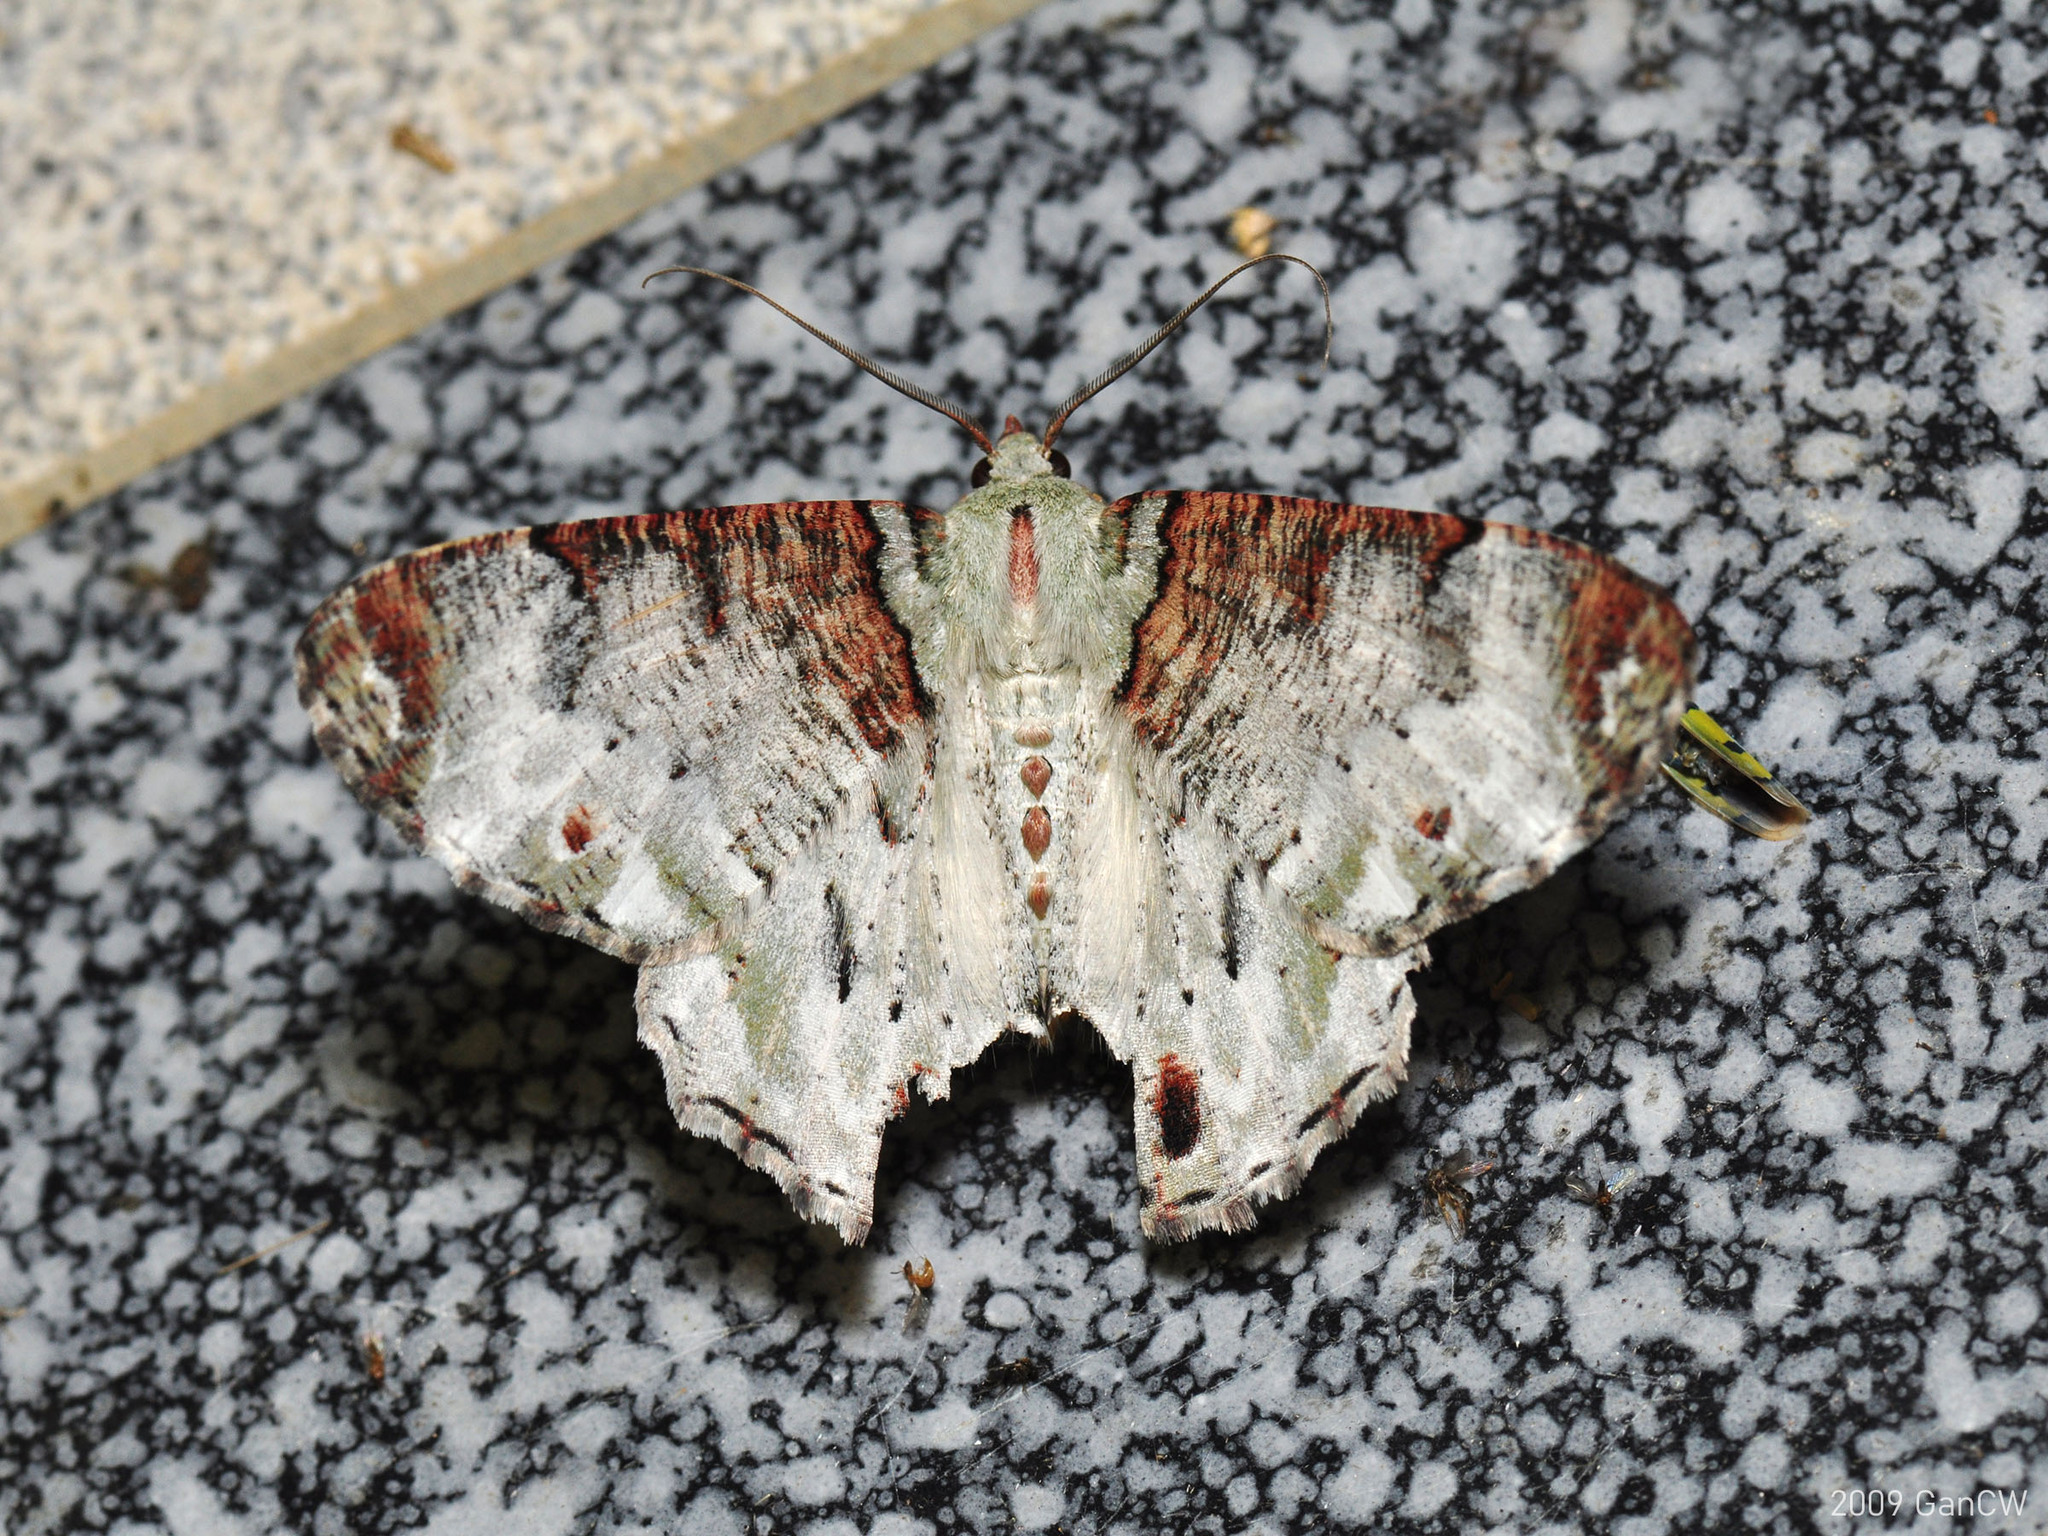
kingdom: Animalia
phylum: Arthropoda
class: Insecta
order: Lepidoptera
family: Geometridae
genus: Pachyodes
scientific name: Pachyodes pratti
